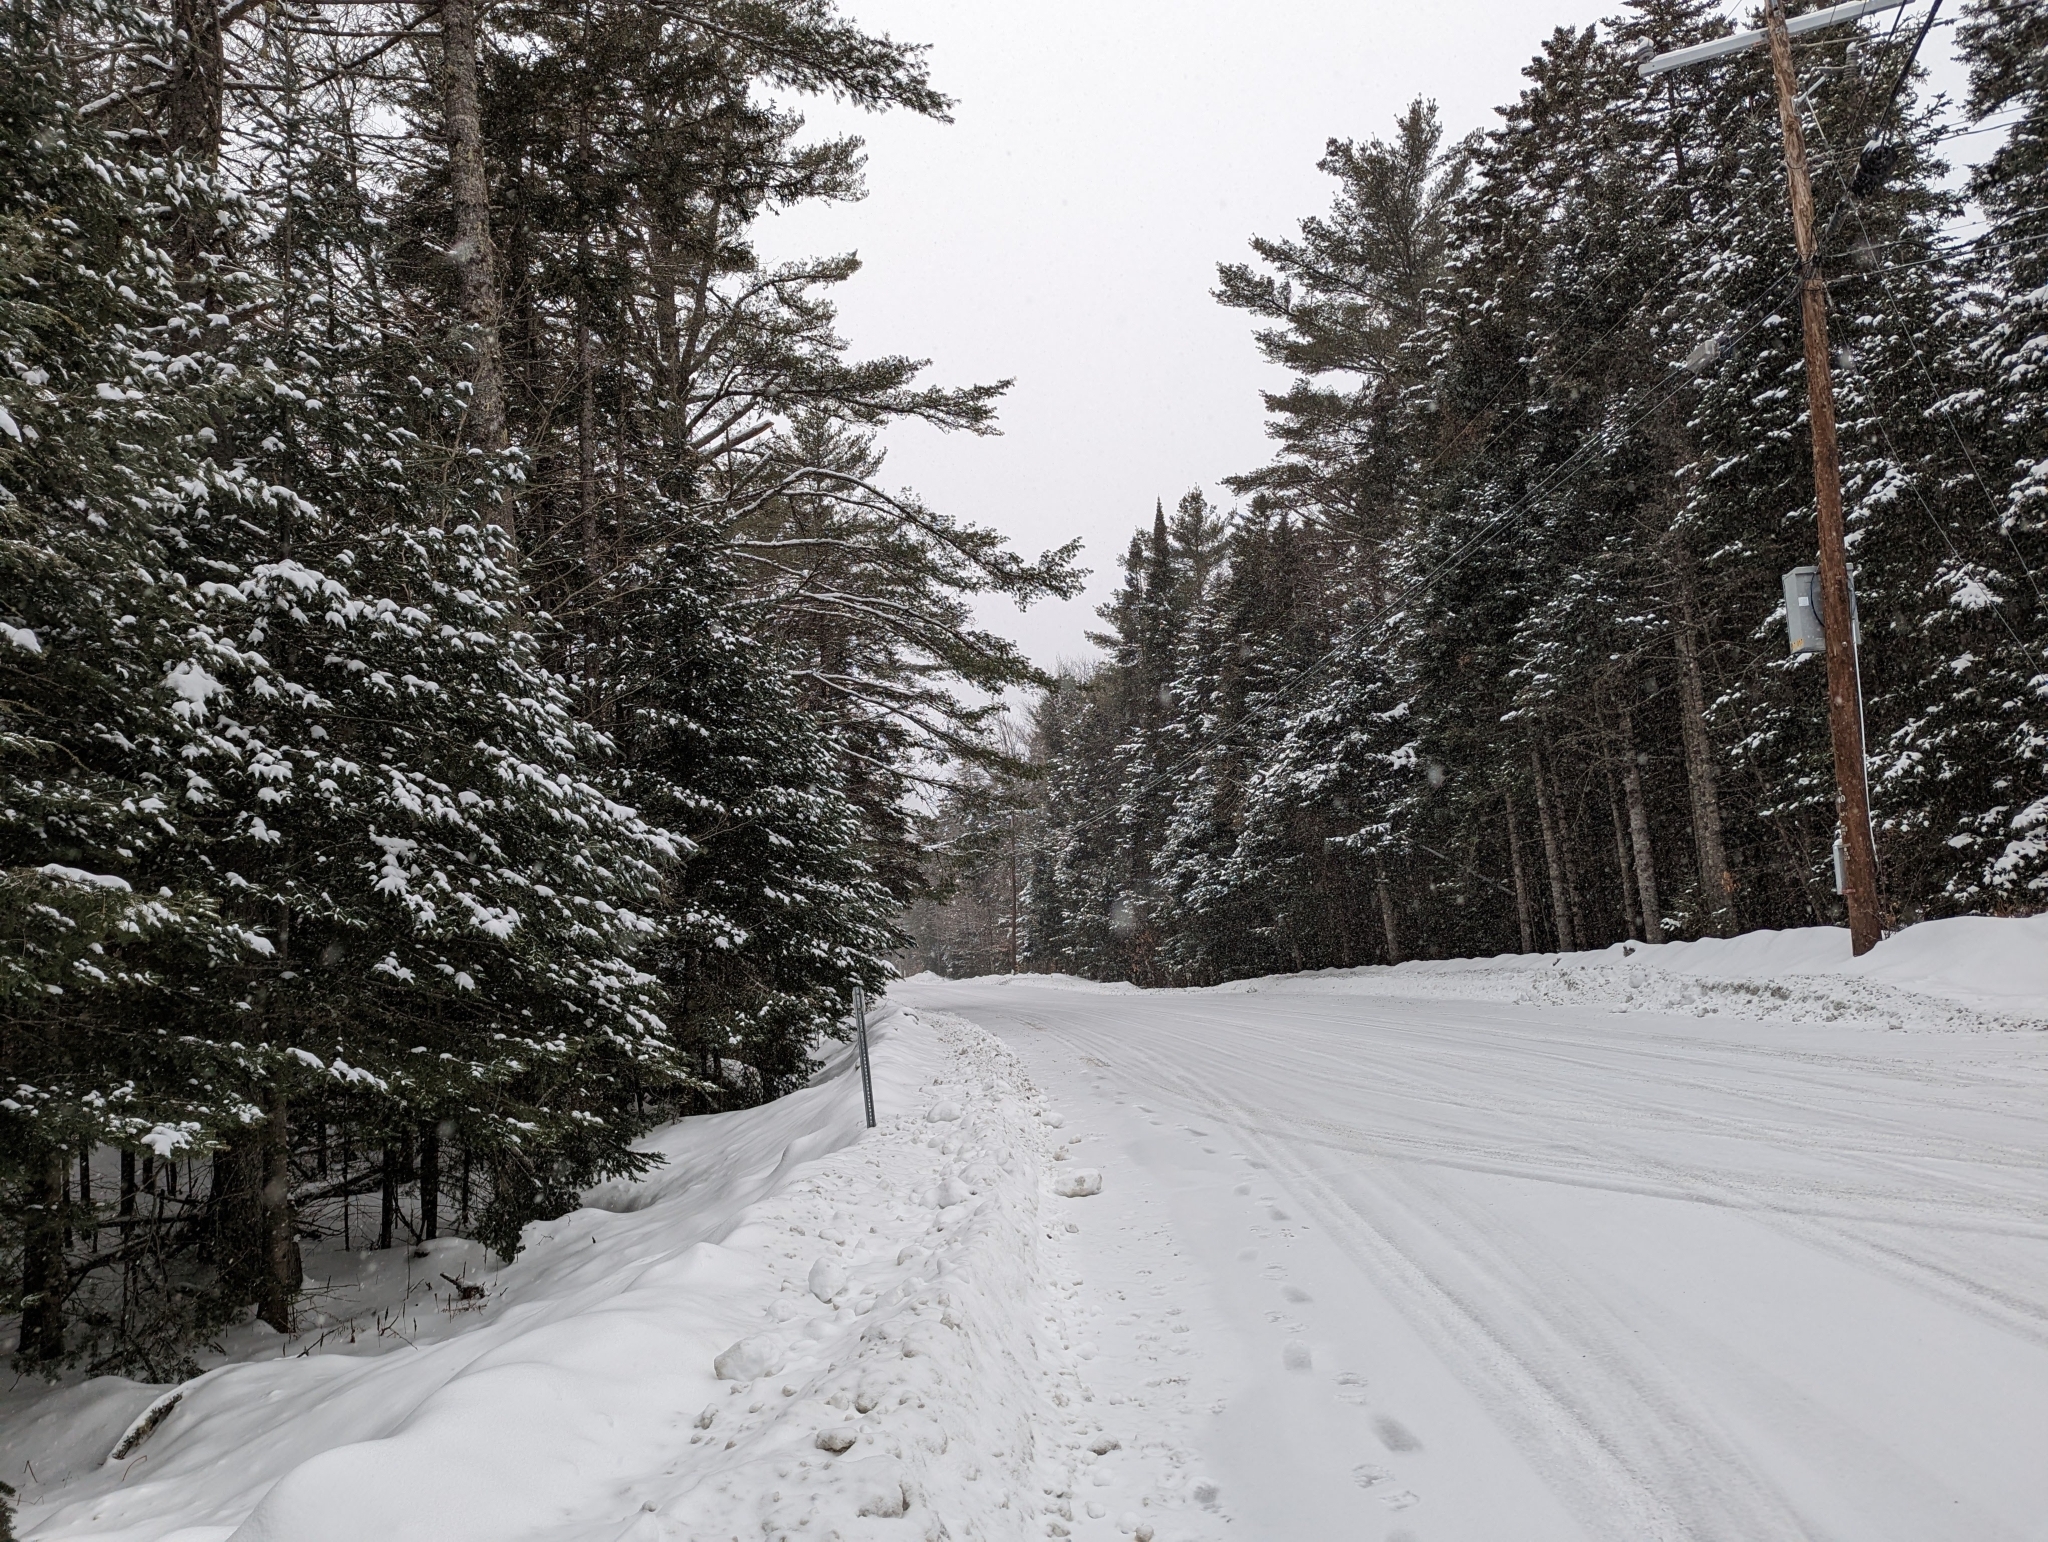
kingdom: Plantae
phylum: Tracheophyta
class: Pinopsida
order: Pinales
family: Pinaceae
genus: Pinus
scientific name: Pinus strobus
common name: Weymouth pine
